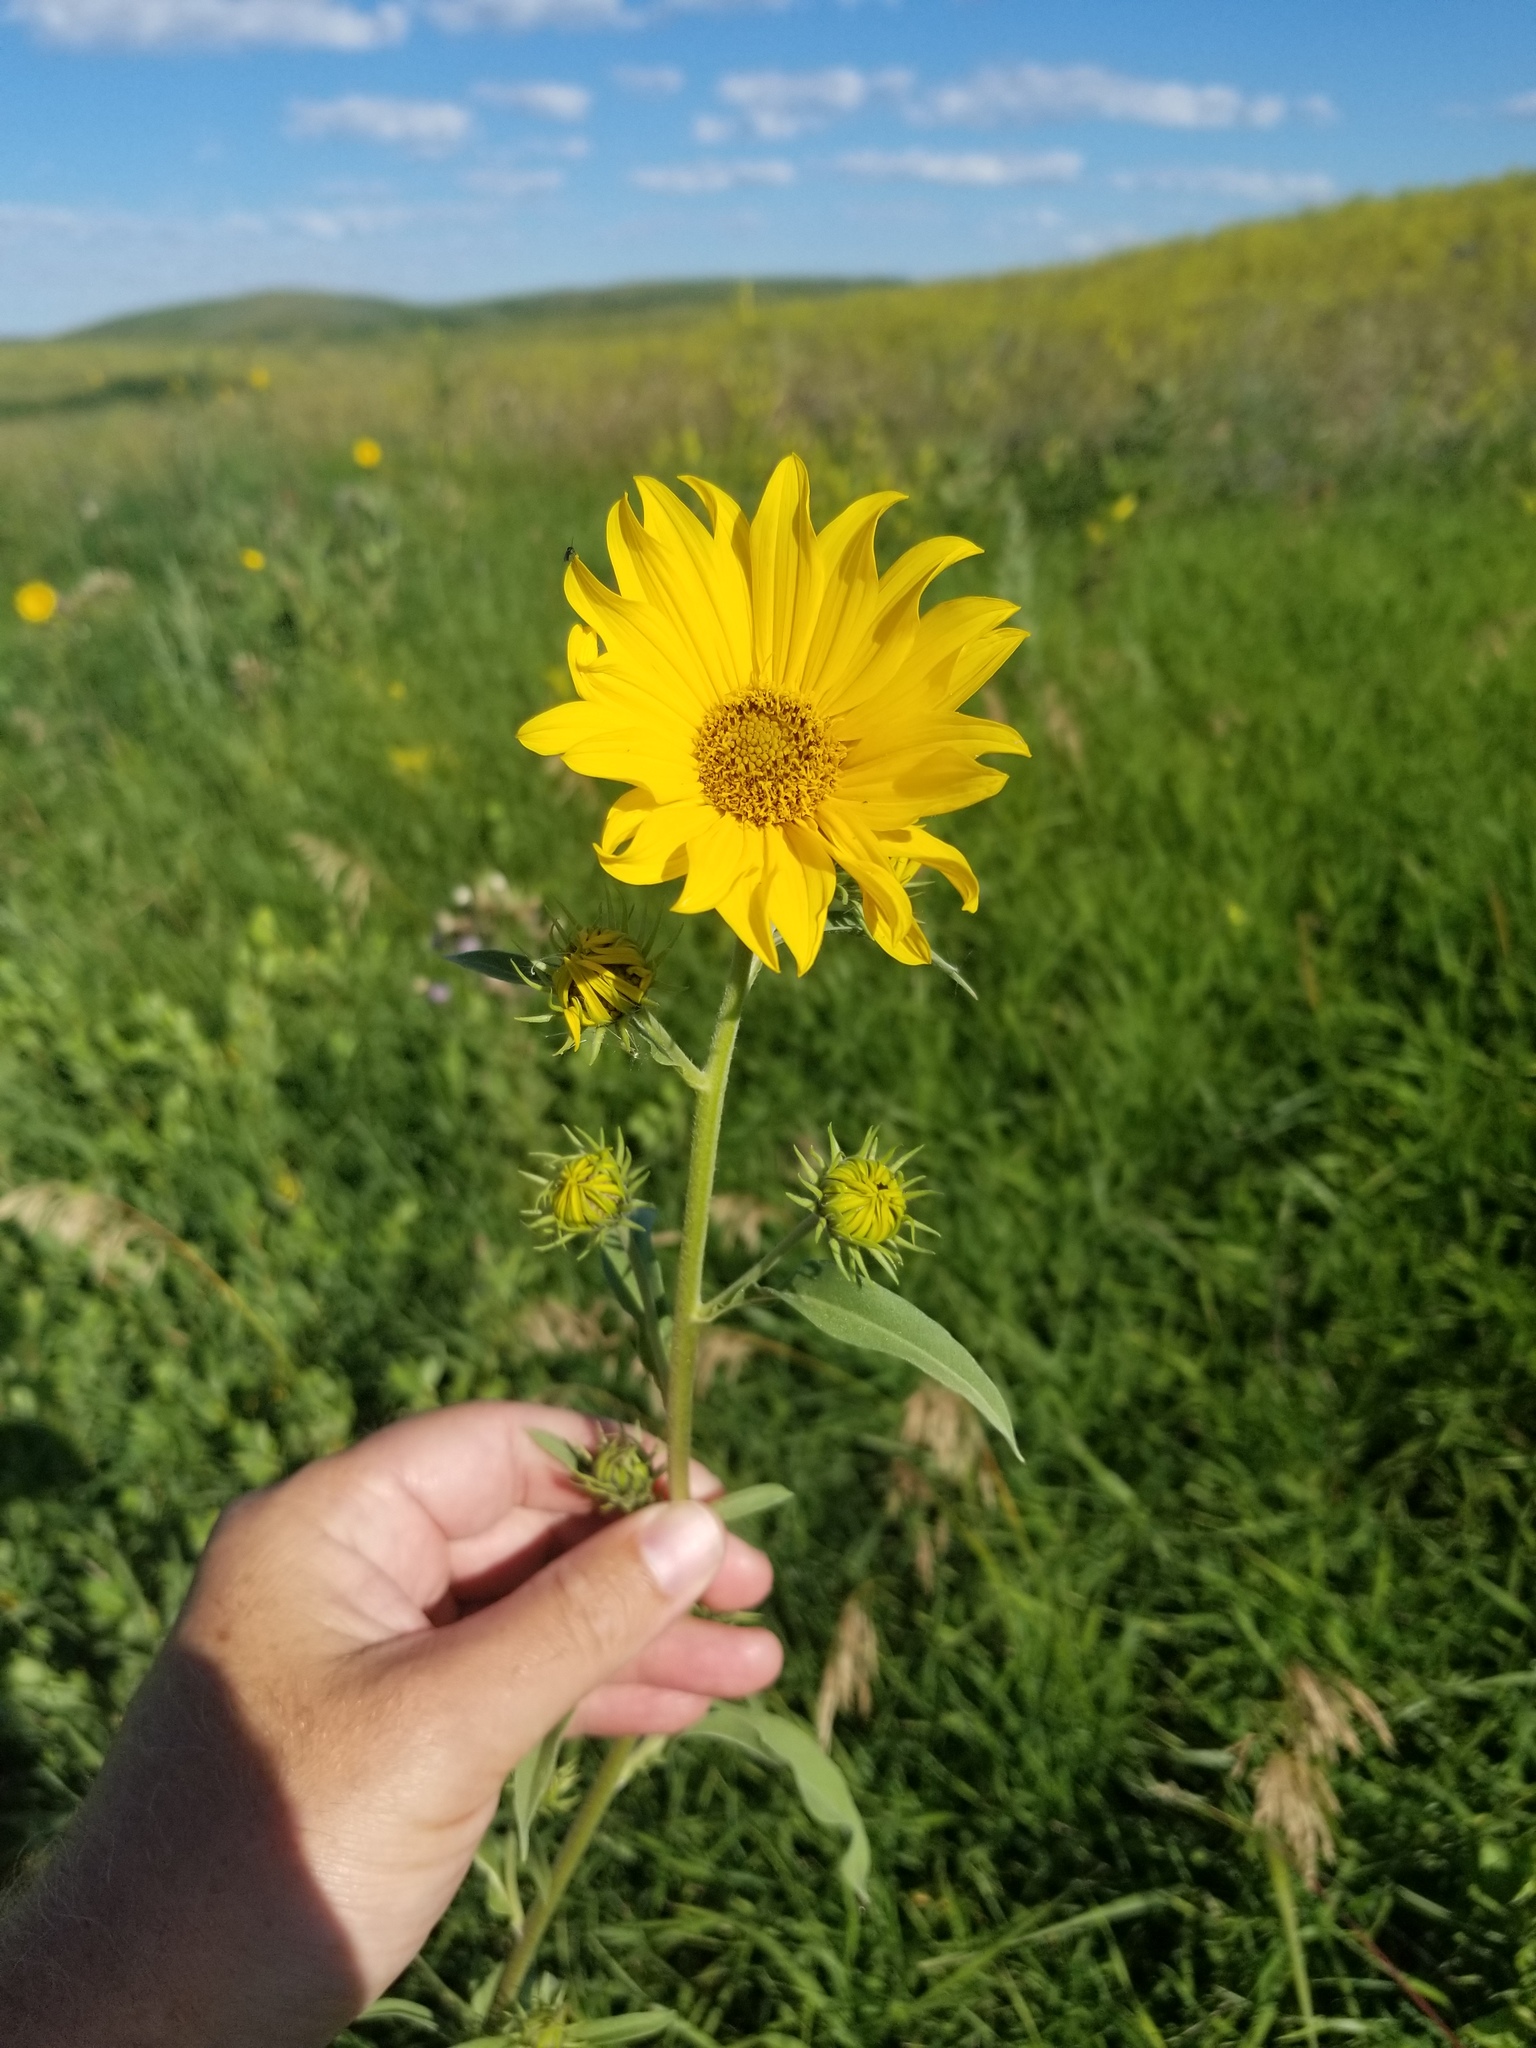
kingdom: Plantae
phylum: Tracheophyta
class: Magnoliopsida
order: Asterales
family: Asteraceae
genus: Helianthus
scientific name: Helianthus maximiliani
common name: Maximilian's sunflower
